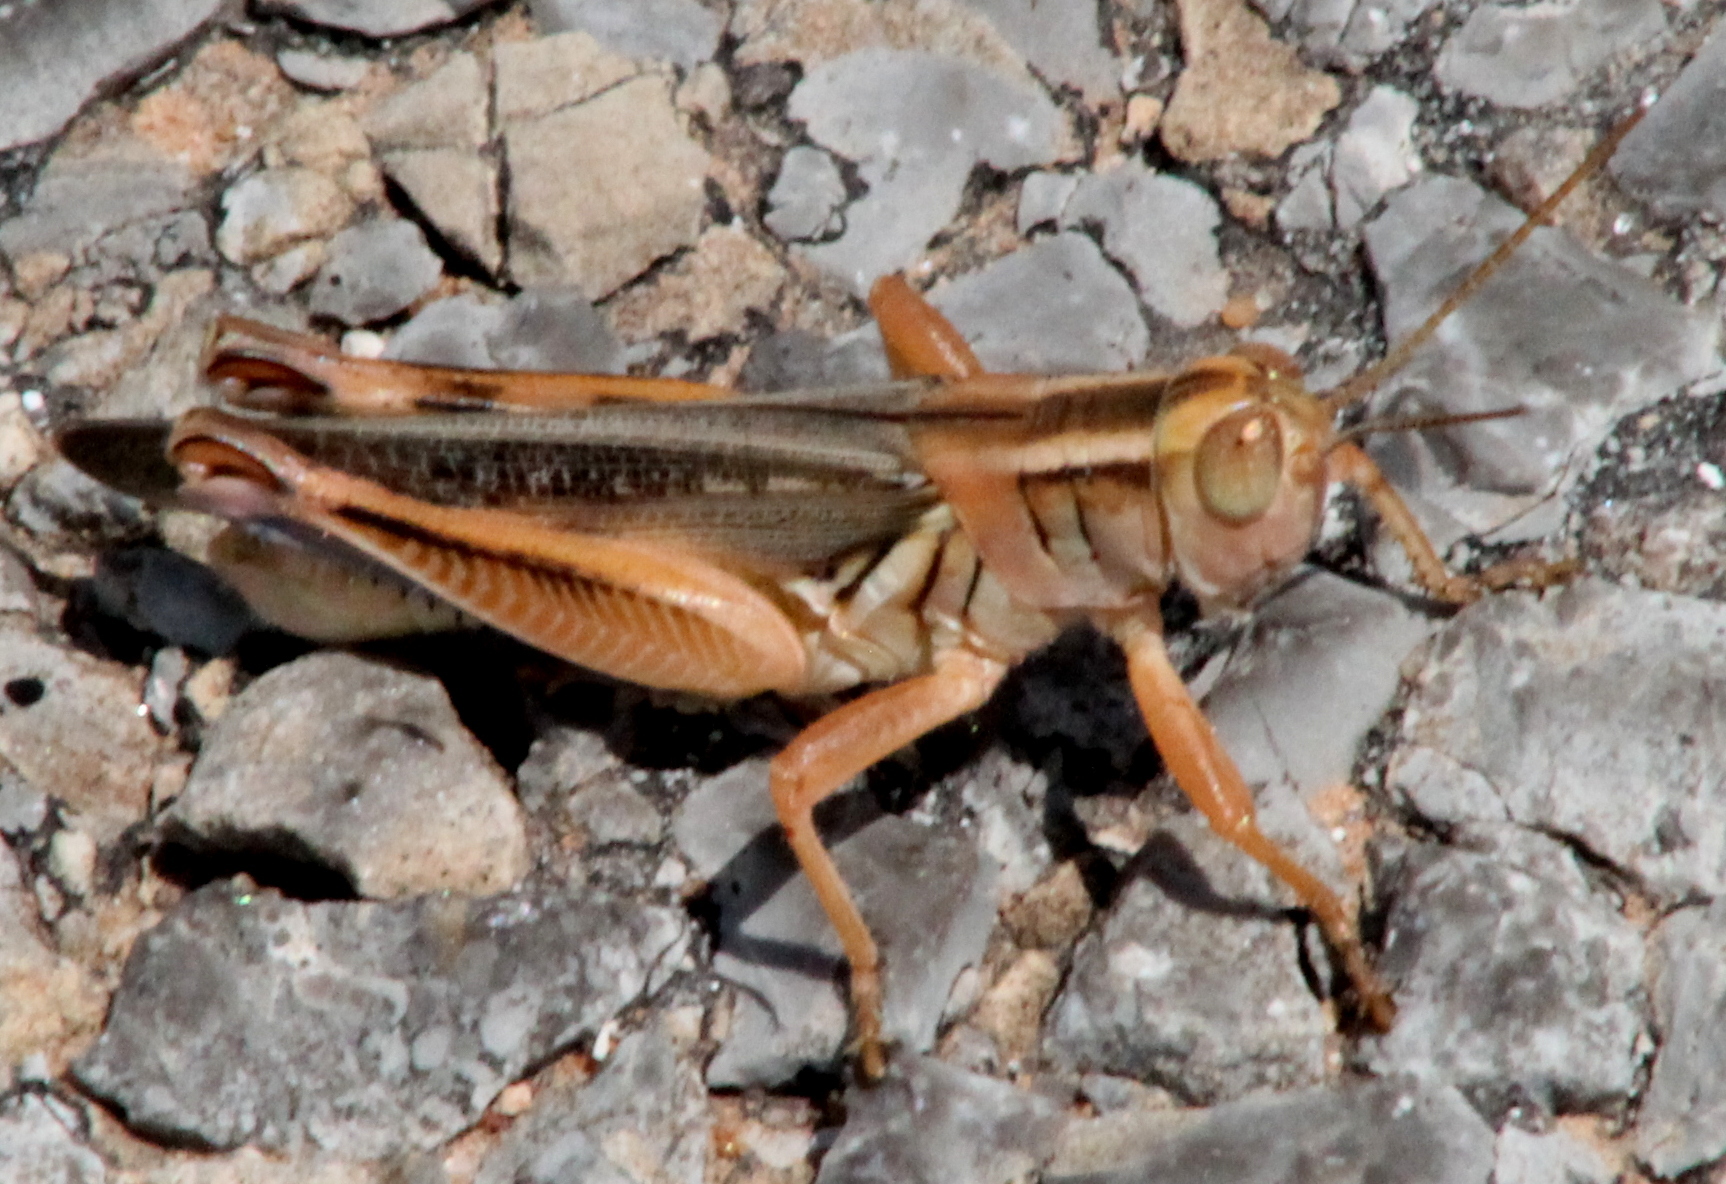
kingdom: Animalia
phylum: Arthropoda
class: Insecta
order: Orthoptera
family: Acrididae
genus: Melanoplus
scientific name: Melanoplus packardii
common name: Packard's grasshopper
